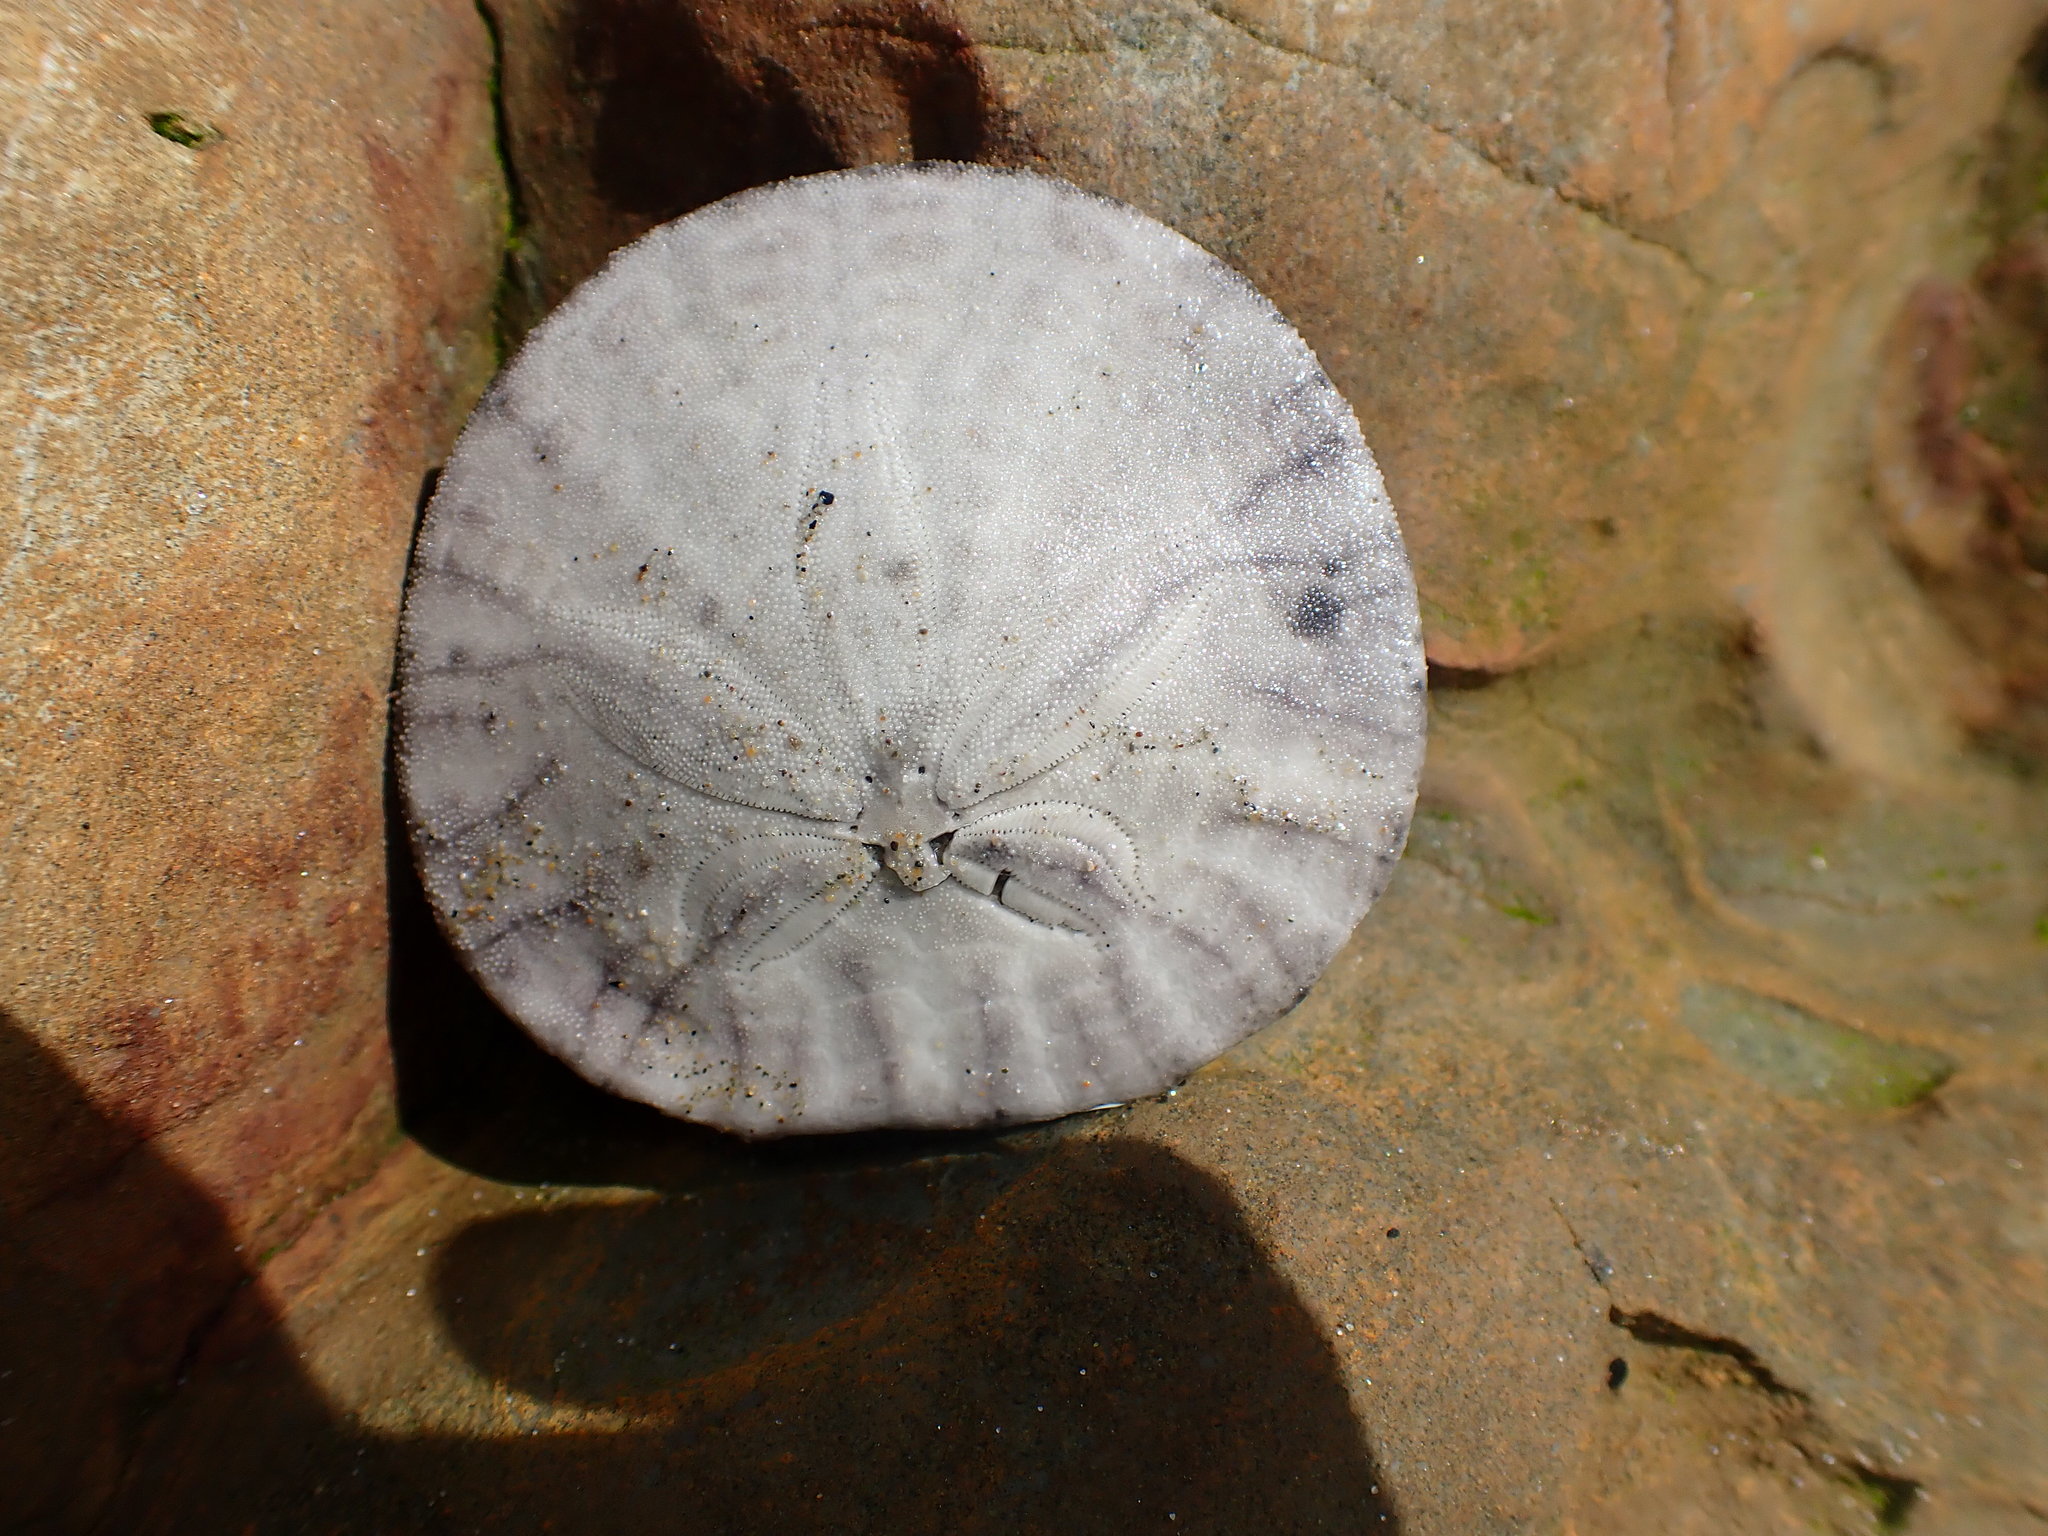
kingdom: Animalia
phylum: Echinodermata
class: Echinoidea
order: Echinolampadacea
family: Dendrasteridae
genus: Dendraster
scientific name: Dendraster excentricus
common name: Eccentric sand dollar sea urchin
